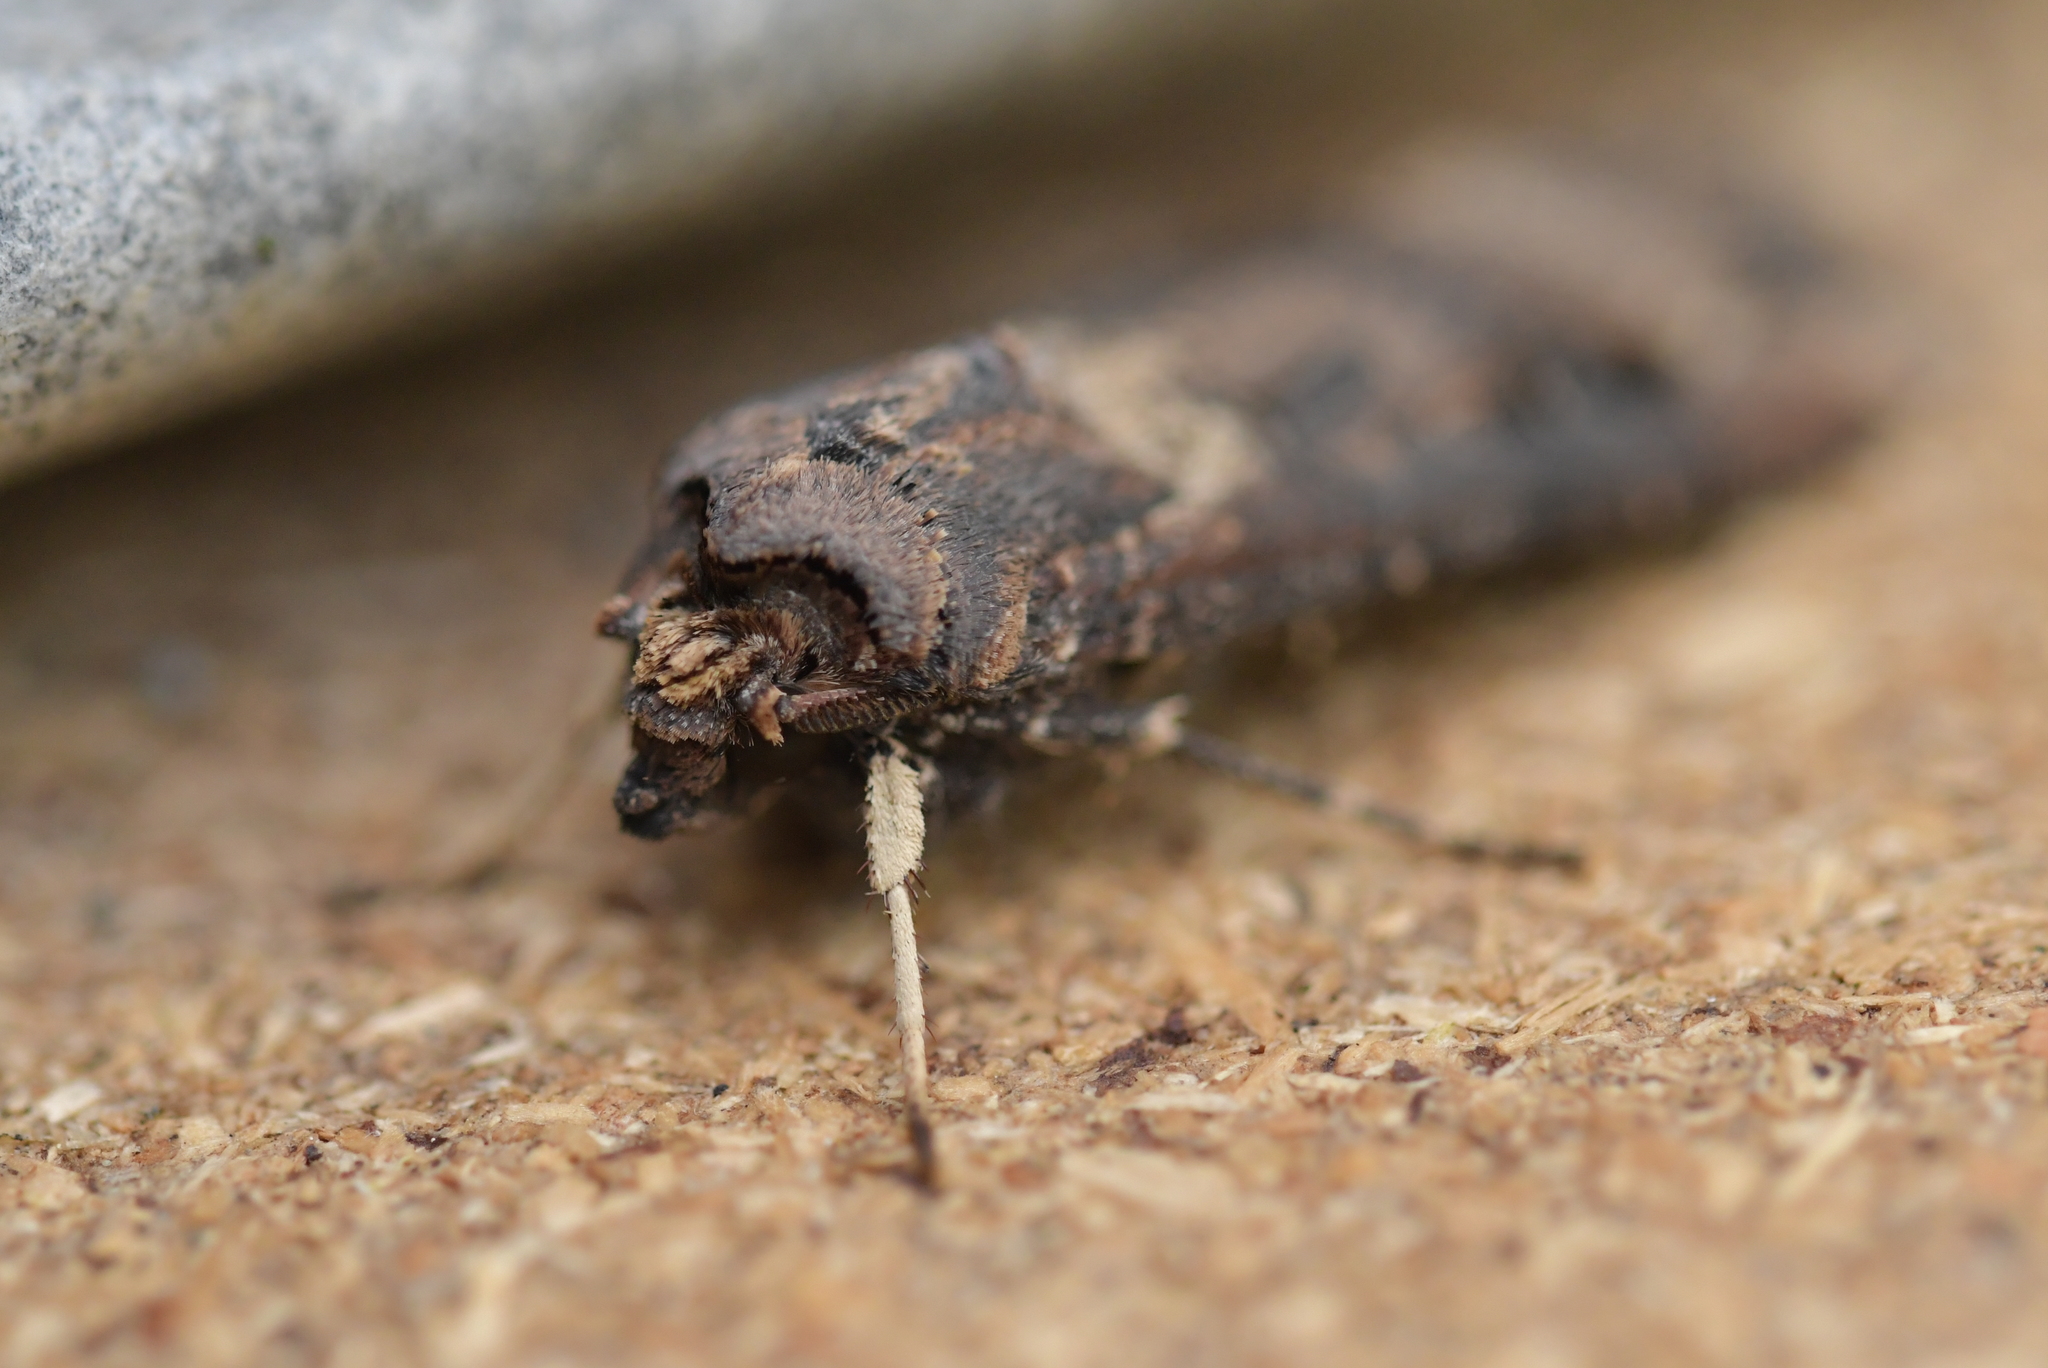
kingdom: Animalia
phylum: Arthropoda
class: Insecta
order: Lepidoptera
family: Noctuidae
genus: Agrotis
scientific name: Agrotis ipsilon
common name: Dark sword-grass
